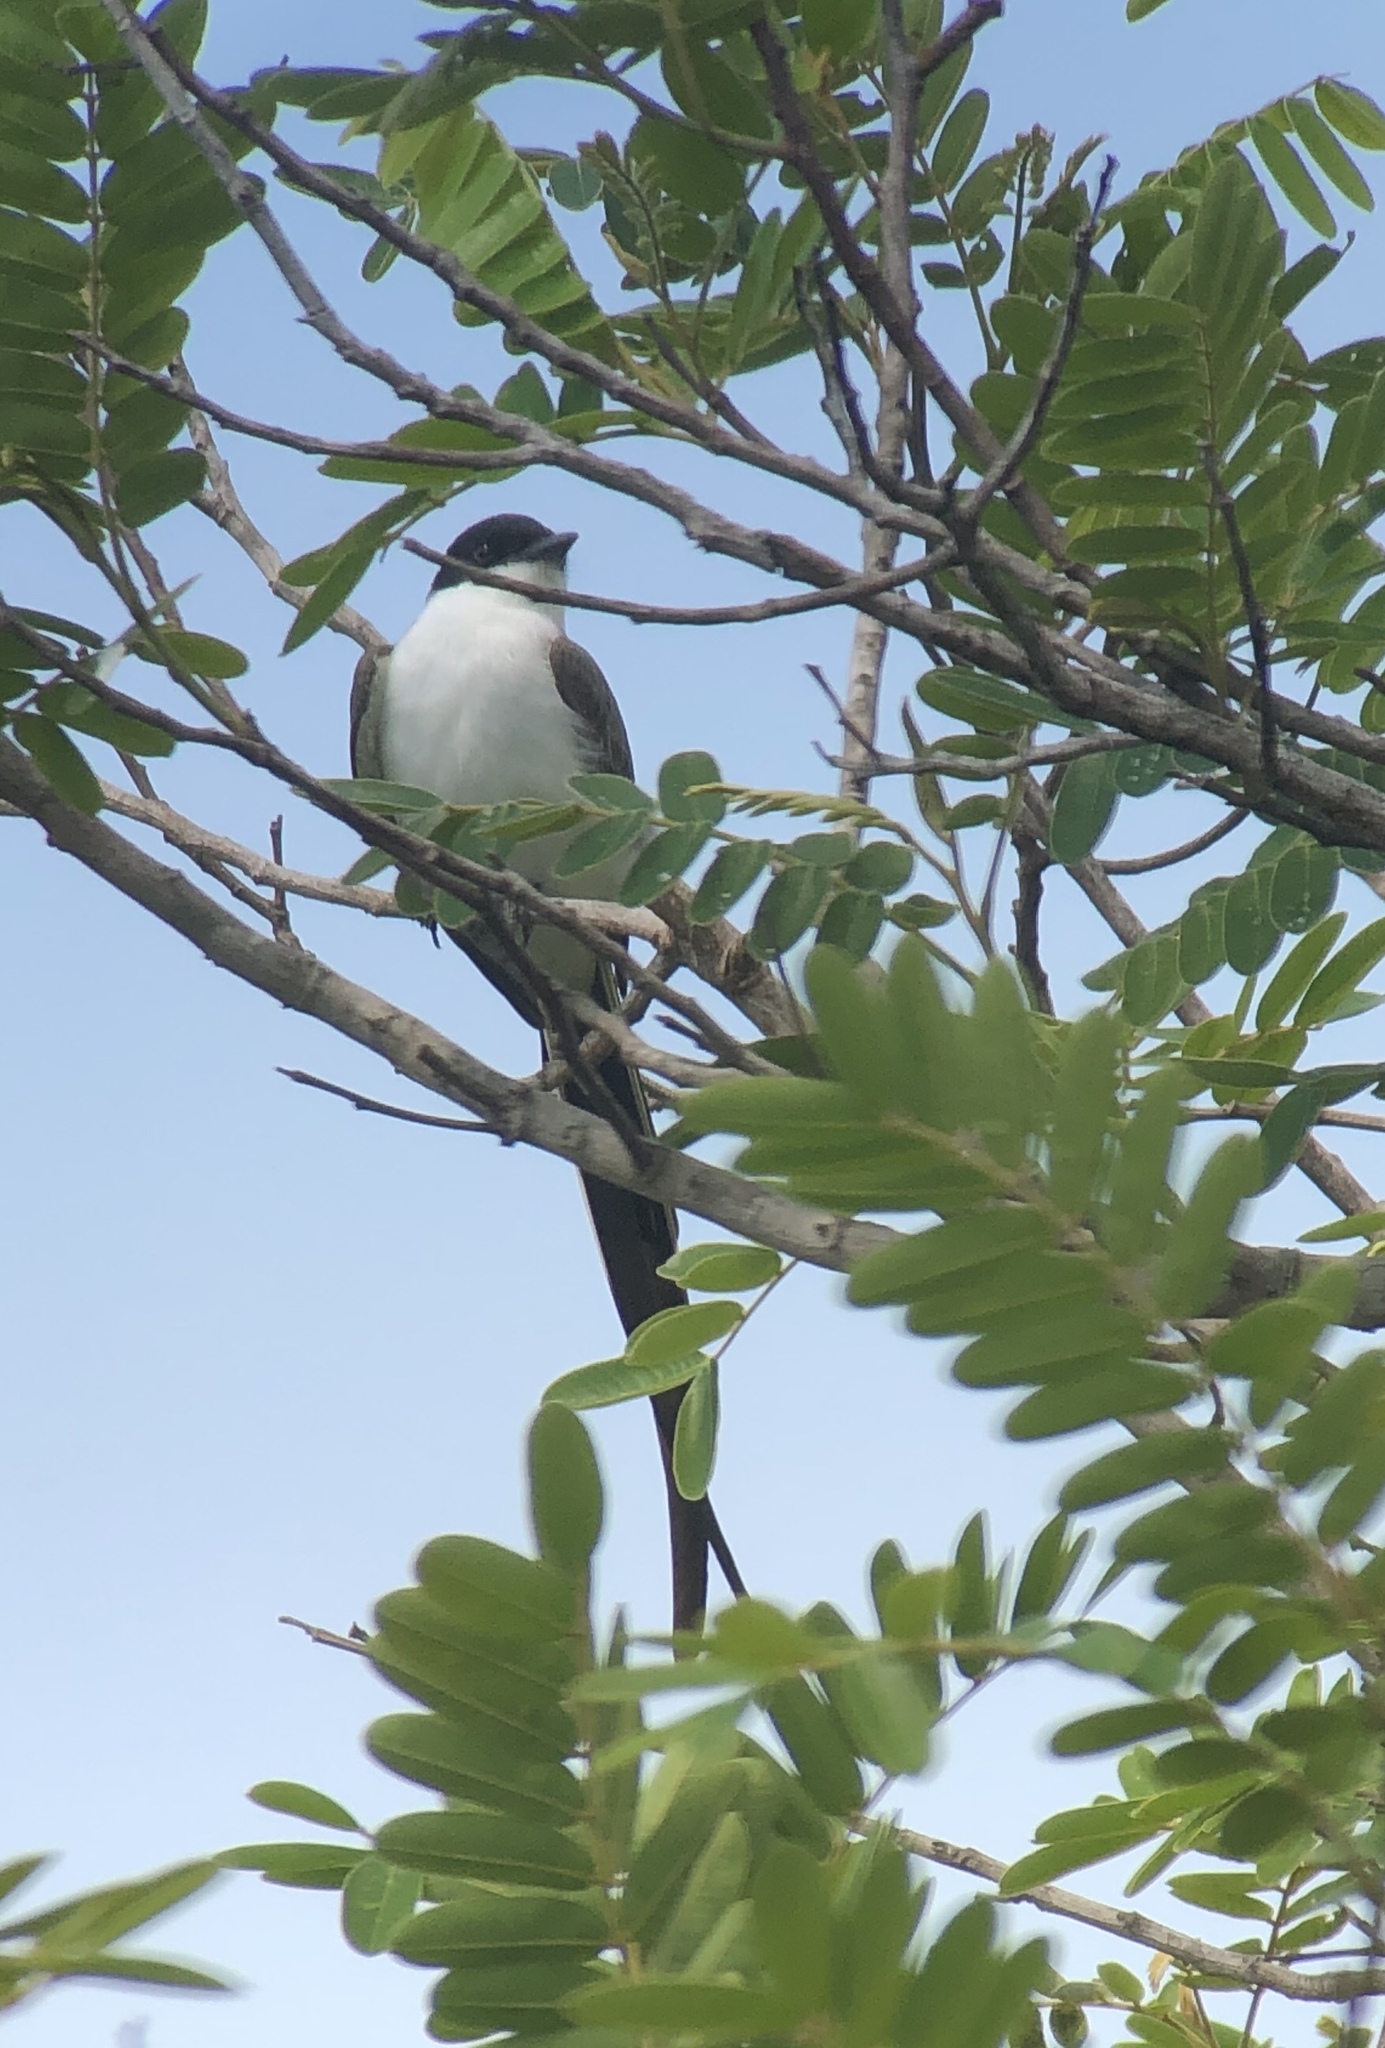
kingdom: Animalia
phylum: Chordata
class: Aves
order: Passeriformes
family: Tyrannidae
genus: Tyrannus
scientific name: Tyrannus savana
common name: Fork-tailed flycatcher
